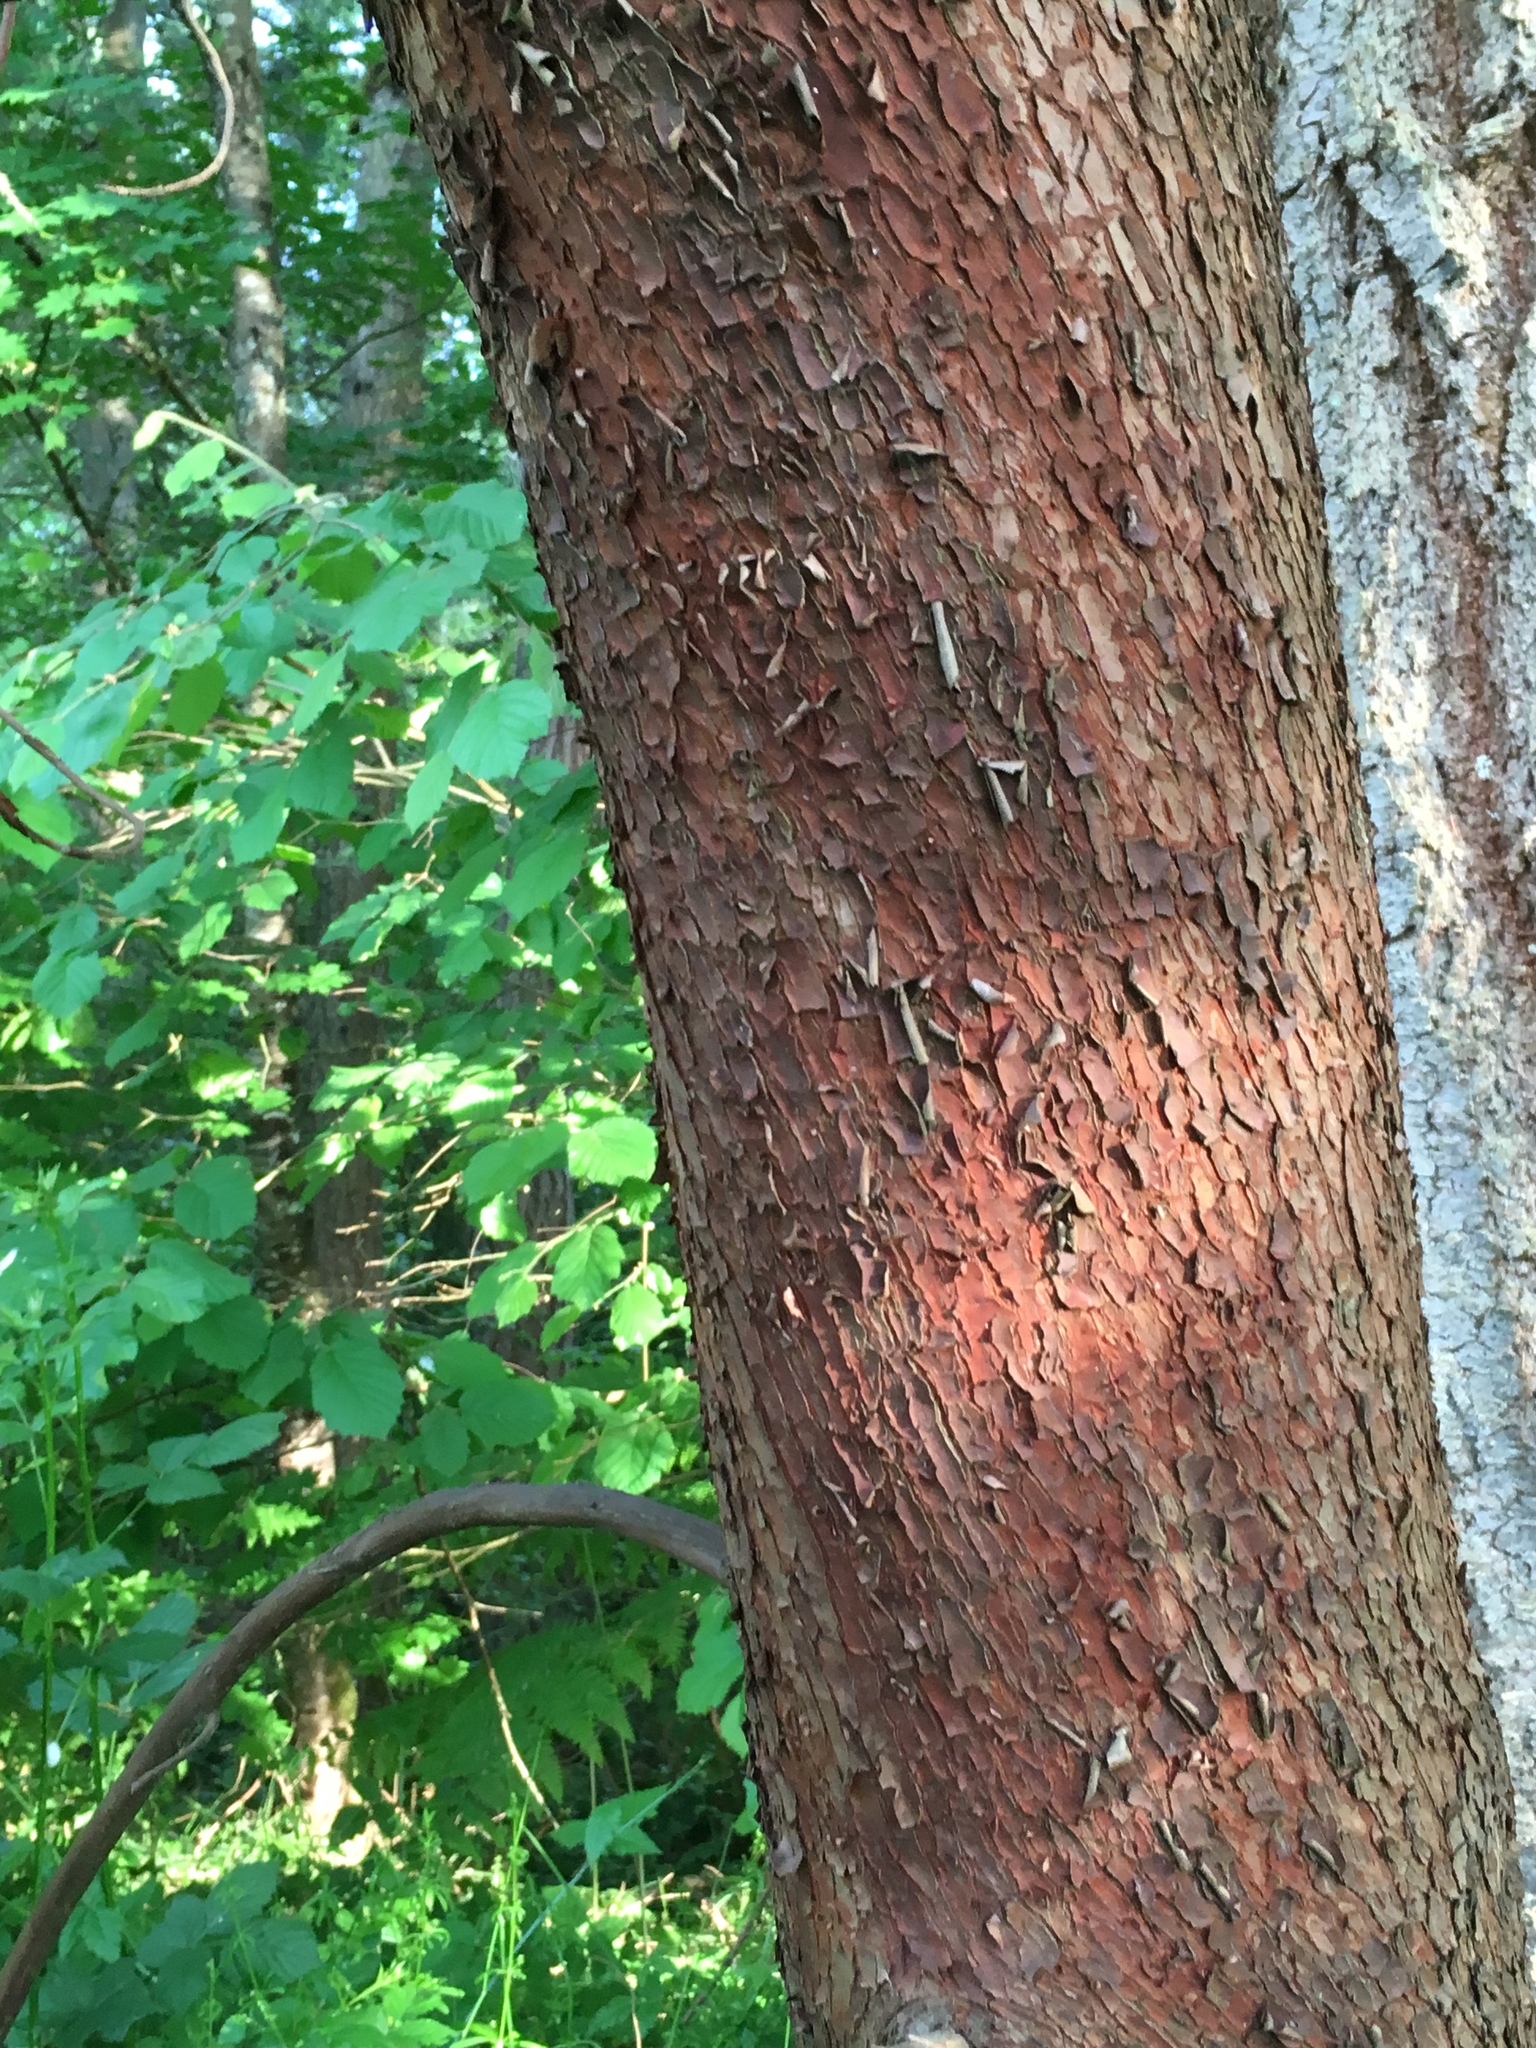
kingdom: Plantae
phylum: Tracheophyta
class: Magnoliopsida
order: Ericales
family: Ericaceae
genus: Arbutus
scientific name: Arbutus menziesii
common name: Pacific madrone
